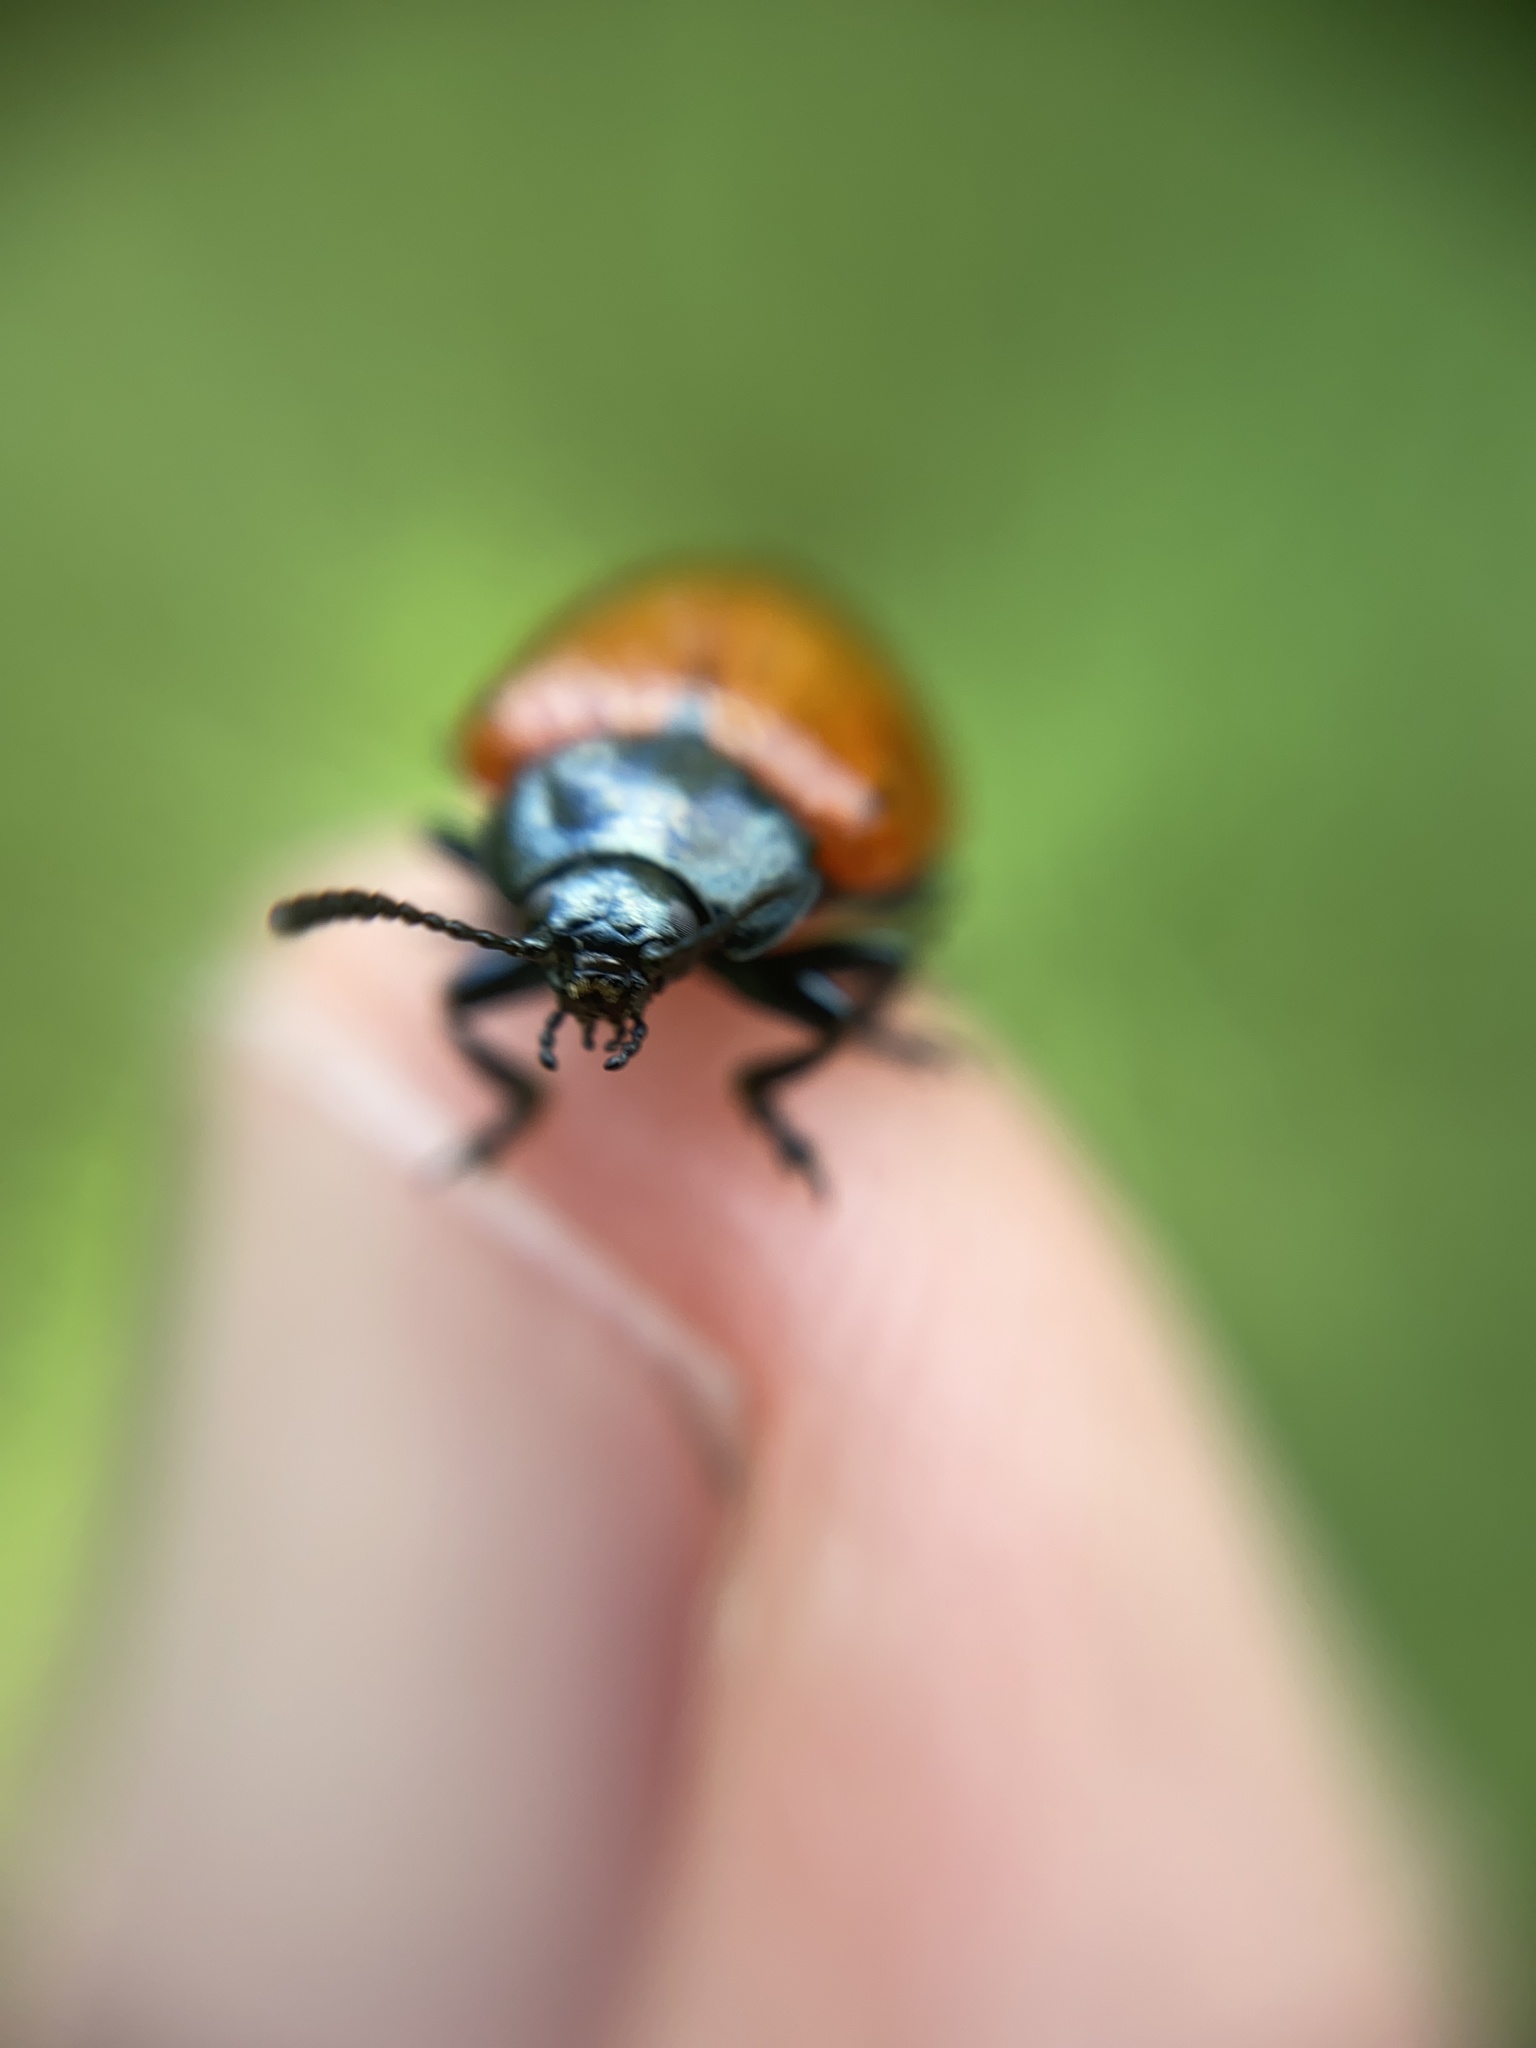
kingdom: Animalia
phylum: Arthropoda
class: Insecta
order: Coleoptera
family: Chrysomelidae
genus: Chrysomela
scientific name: Chrysomela populi
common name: Red poplar leaf beetle
